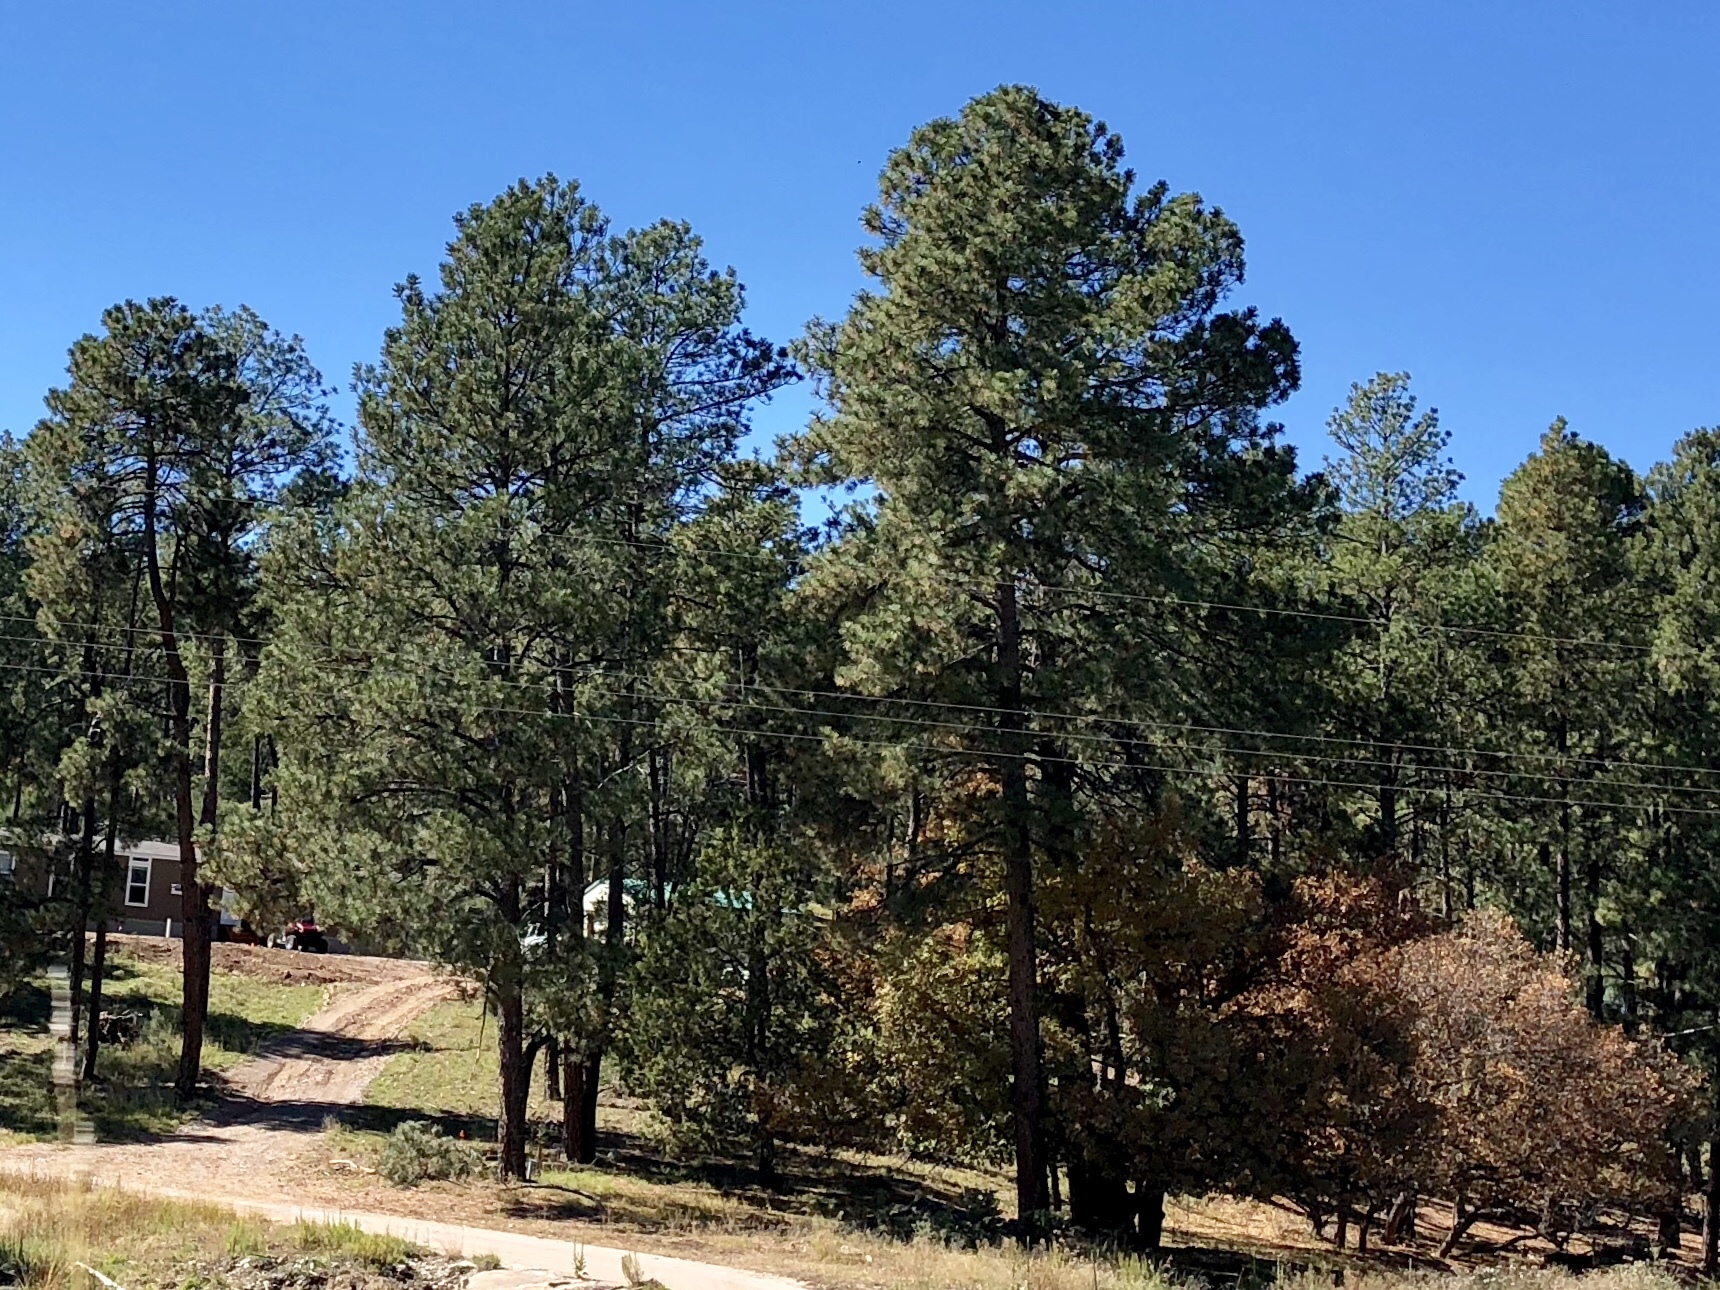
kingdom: Plantae
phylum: Tracheophyta
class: Pinopsida
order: Pinales
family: Pinaceae
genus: Pinus
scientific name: Pinus ponderosa
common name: Western yellow-pine
